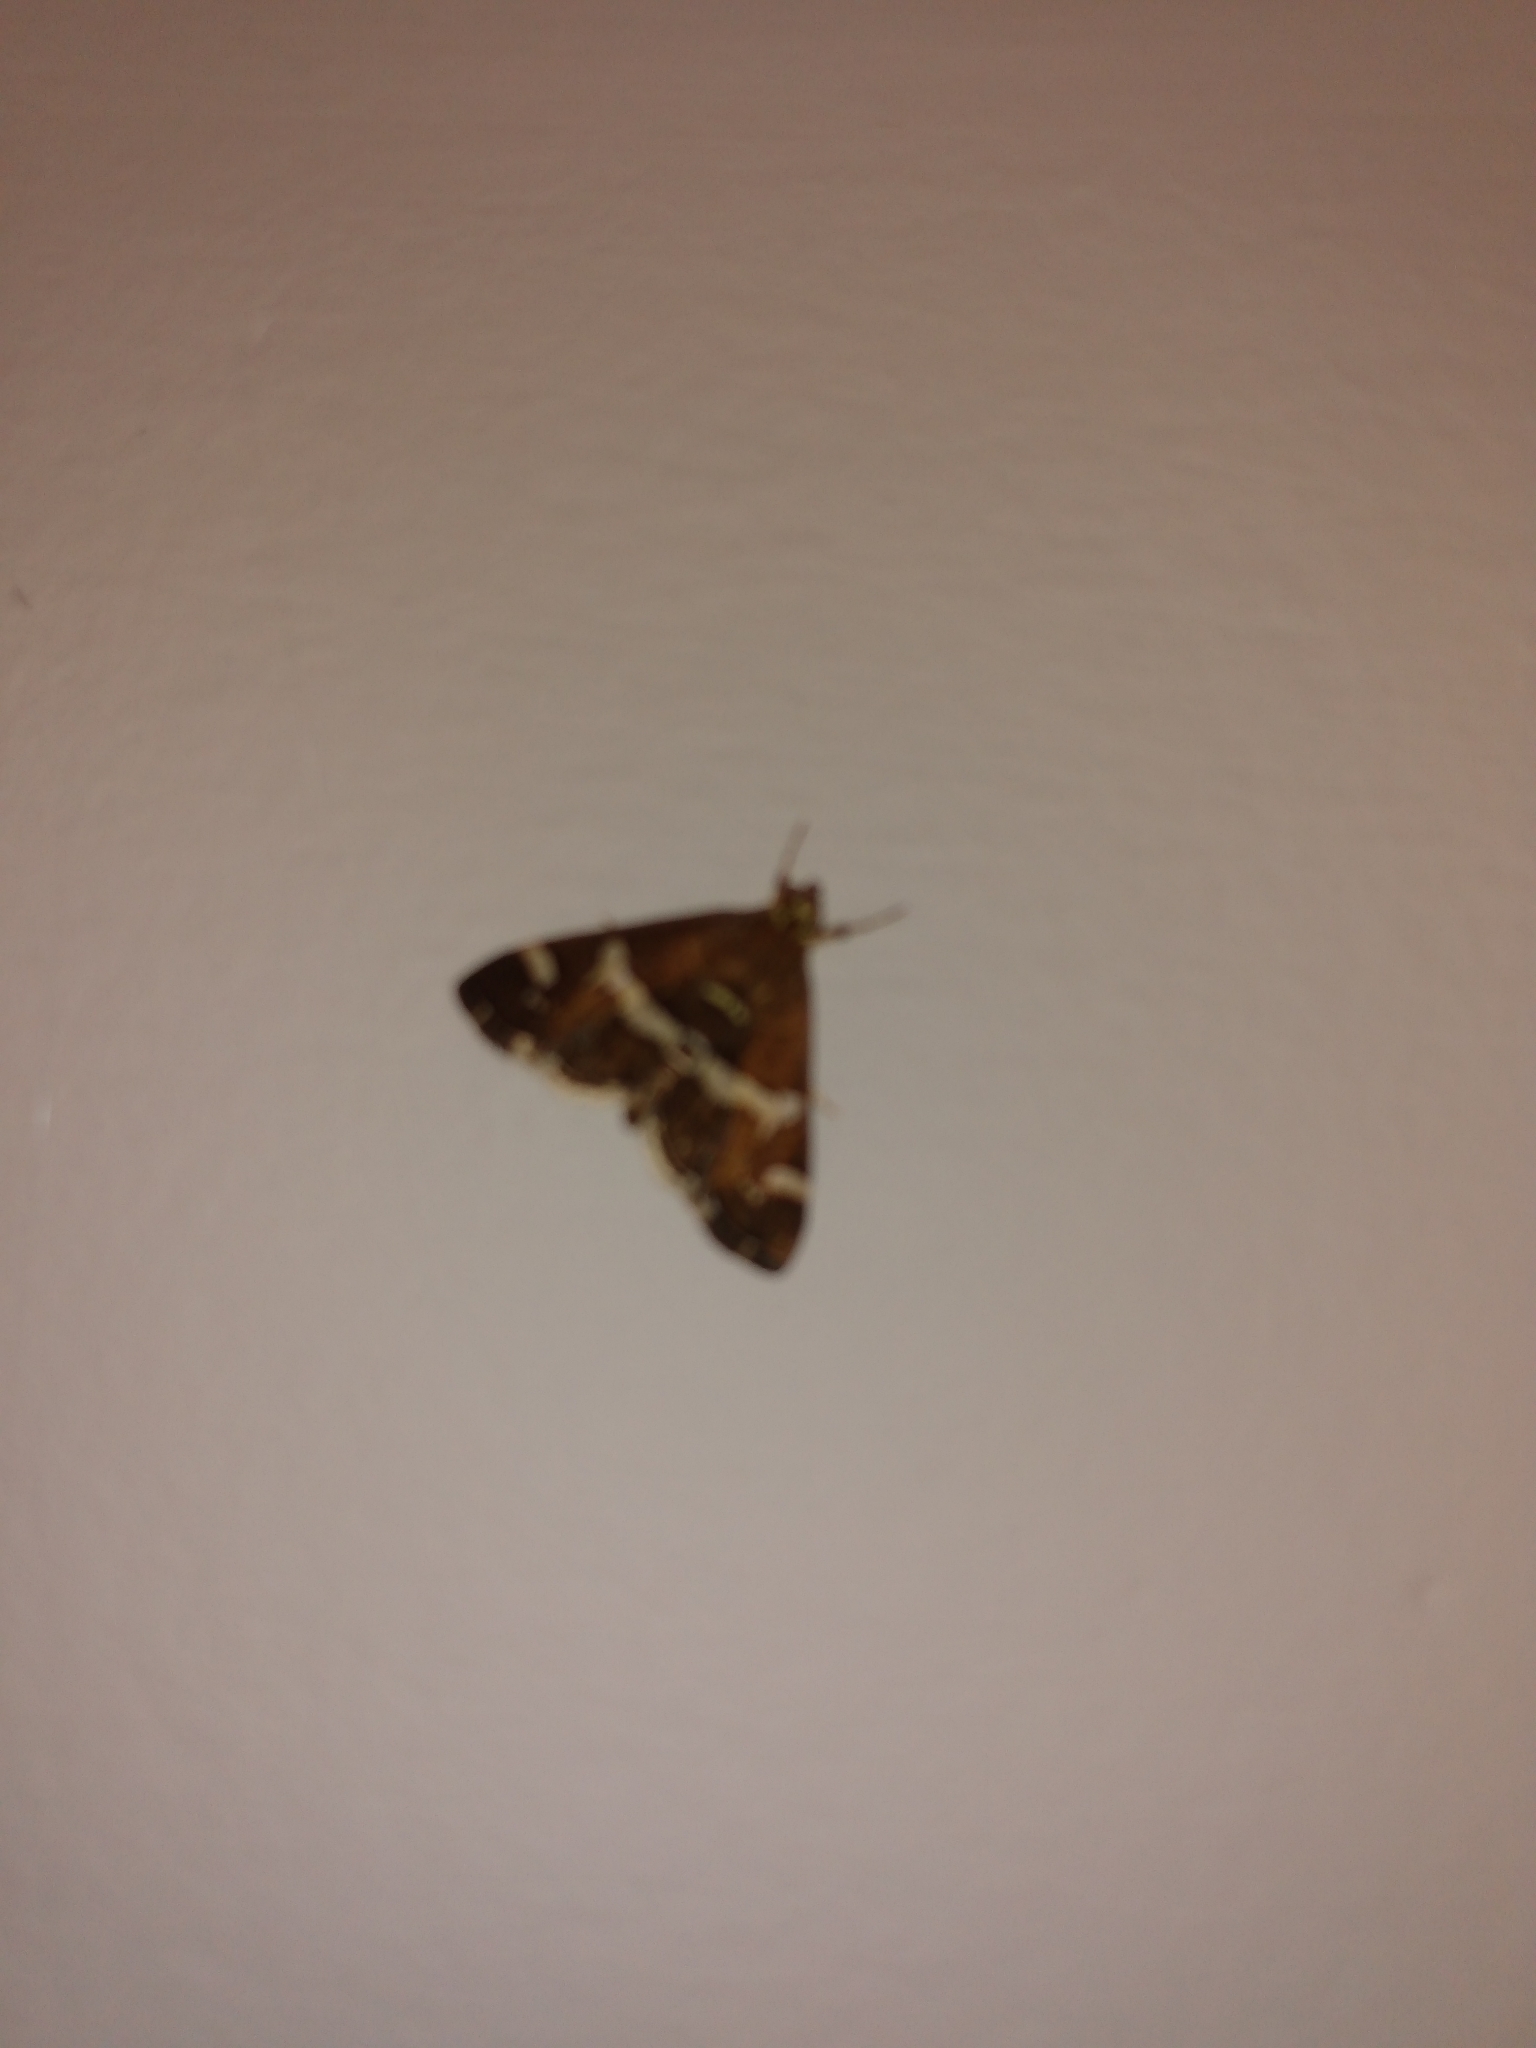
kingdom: Animalia
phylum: Arthropoda
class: Insecta
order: Lepidoptera
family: Crambidae
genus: Spoladea
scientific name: Spoladea recurvalis
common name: Beet webworm moth
